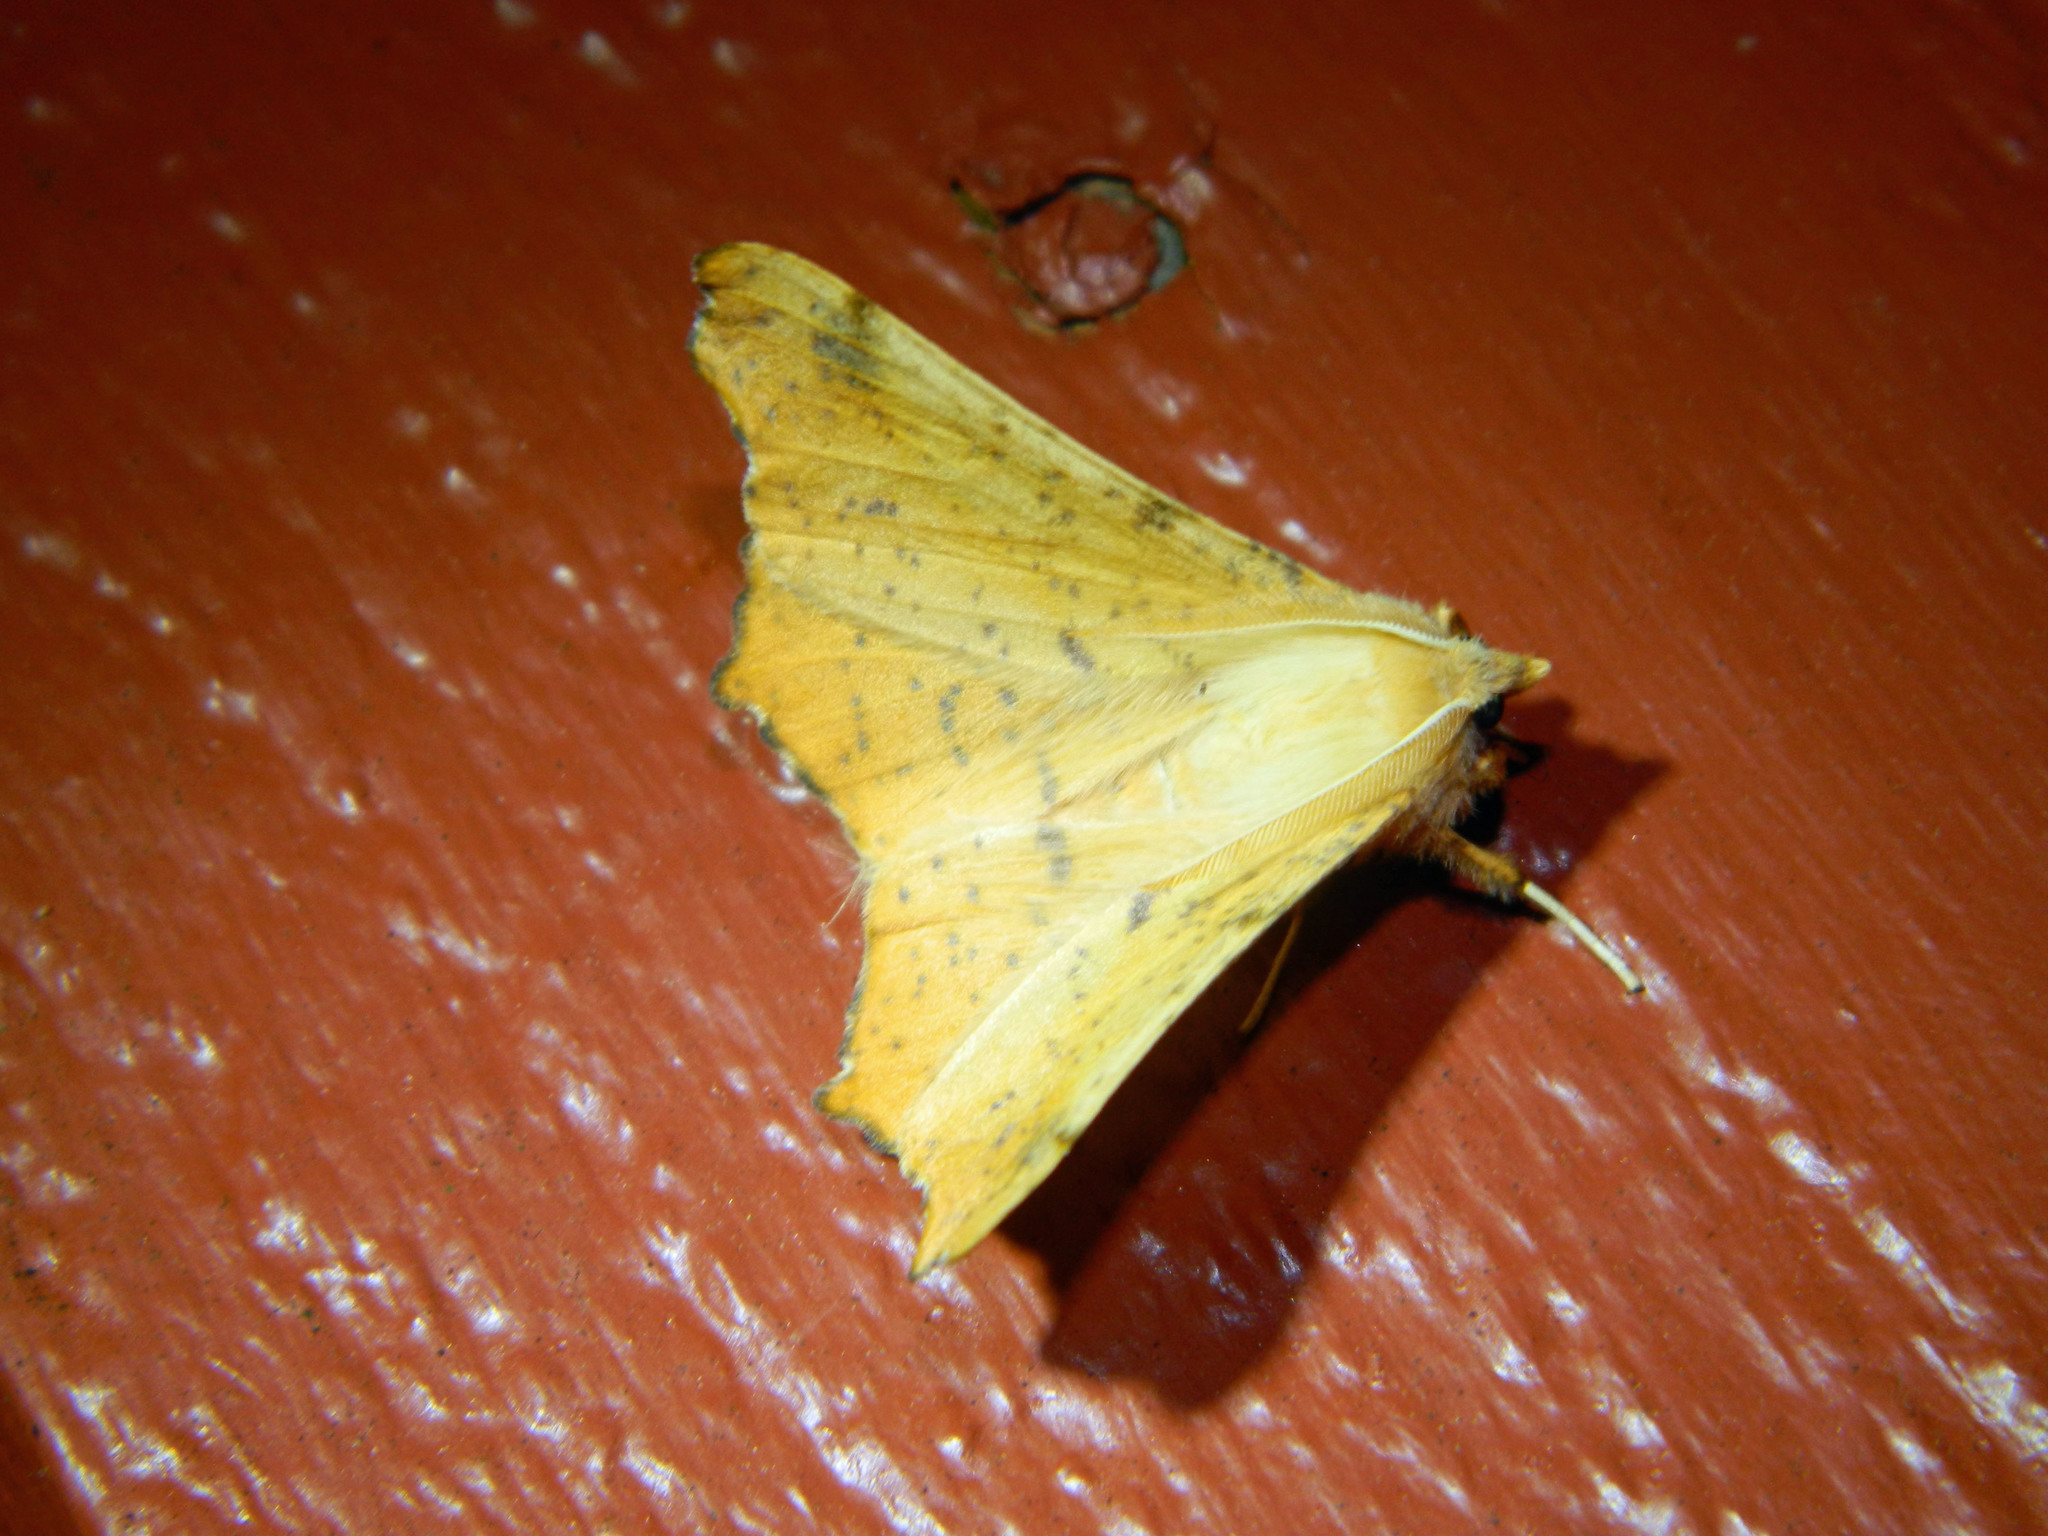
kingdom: Animalia
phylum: Arthropoda
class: Insecta
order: Lepidoptera
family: Geometridae
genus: Ennomos
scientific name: Ennomos magnaria
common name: Maple spanworm
